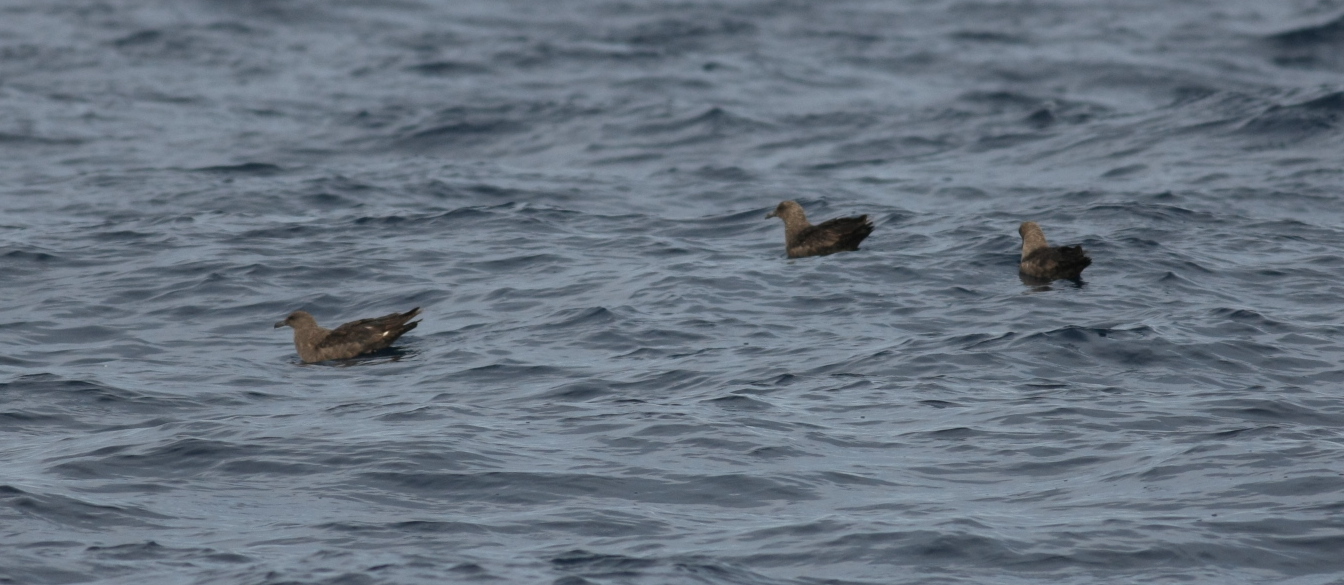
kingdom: Animalia
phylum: Chordata
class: Aves
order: Charadriiformes
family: Stercorariidae
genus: Stercorarius
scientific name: Stercorarius maccormicki
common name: South polar skua
